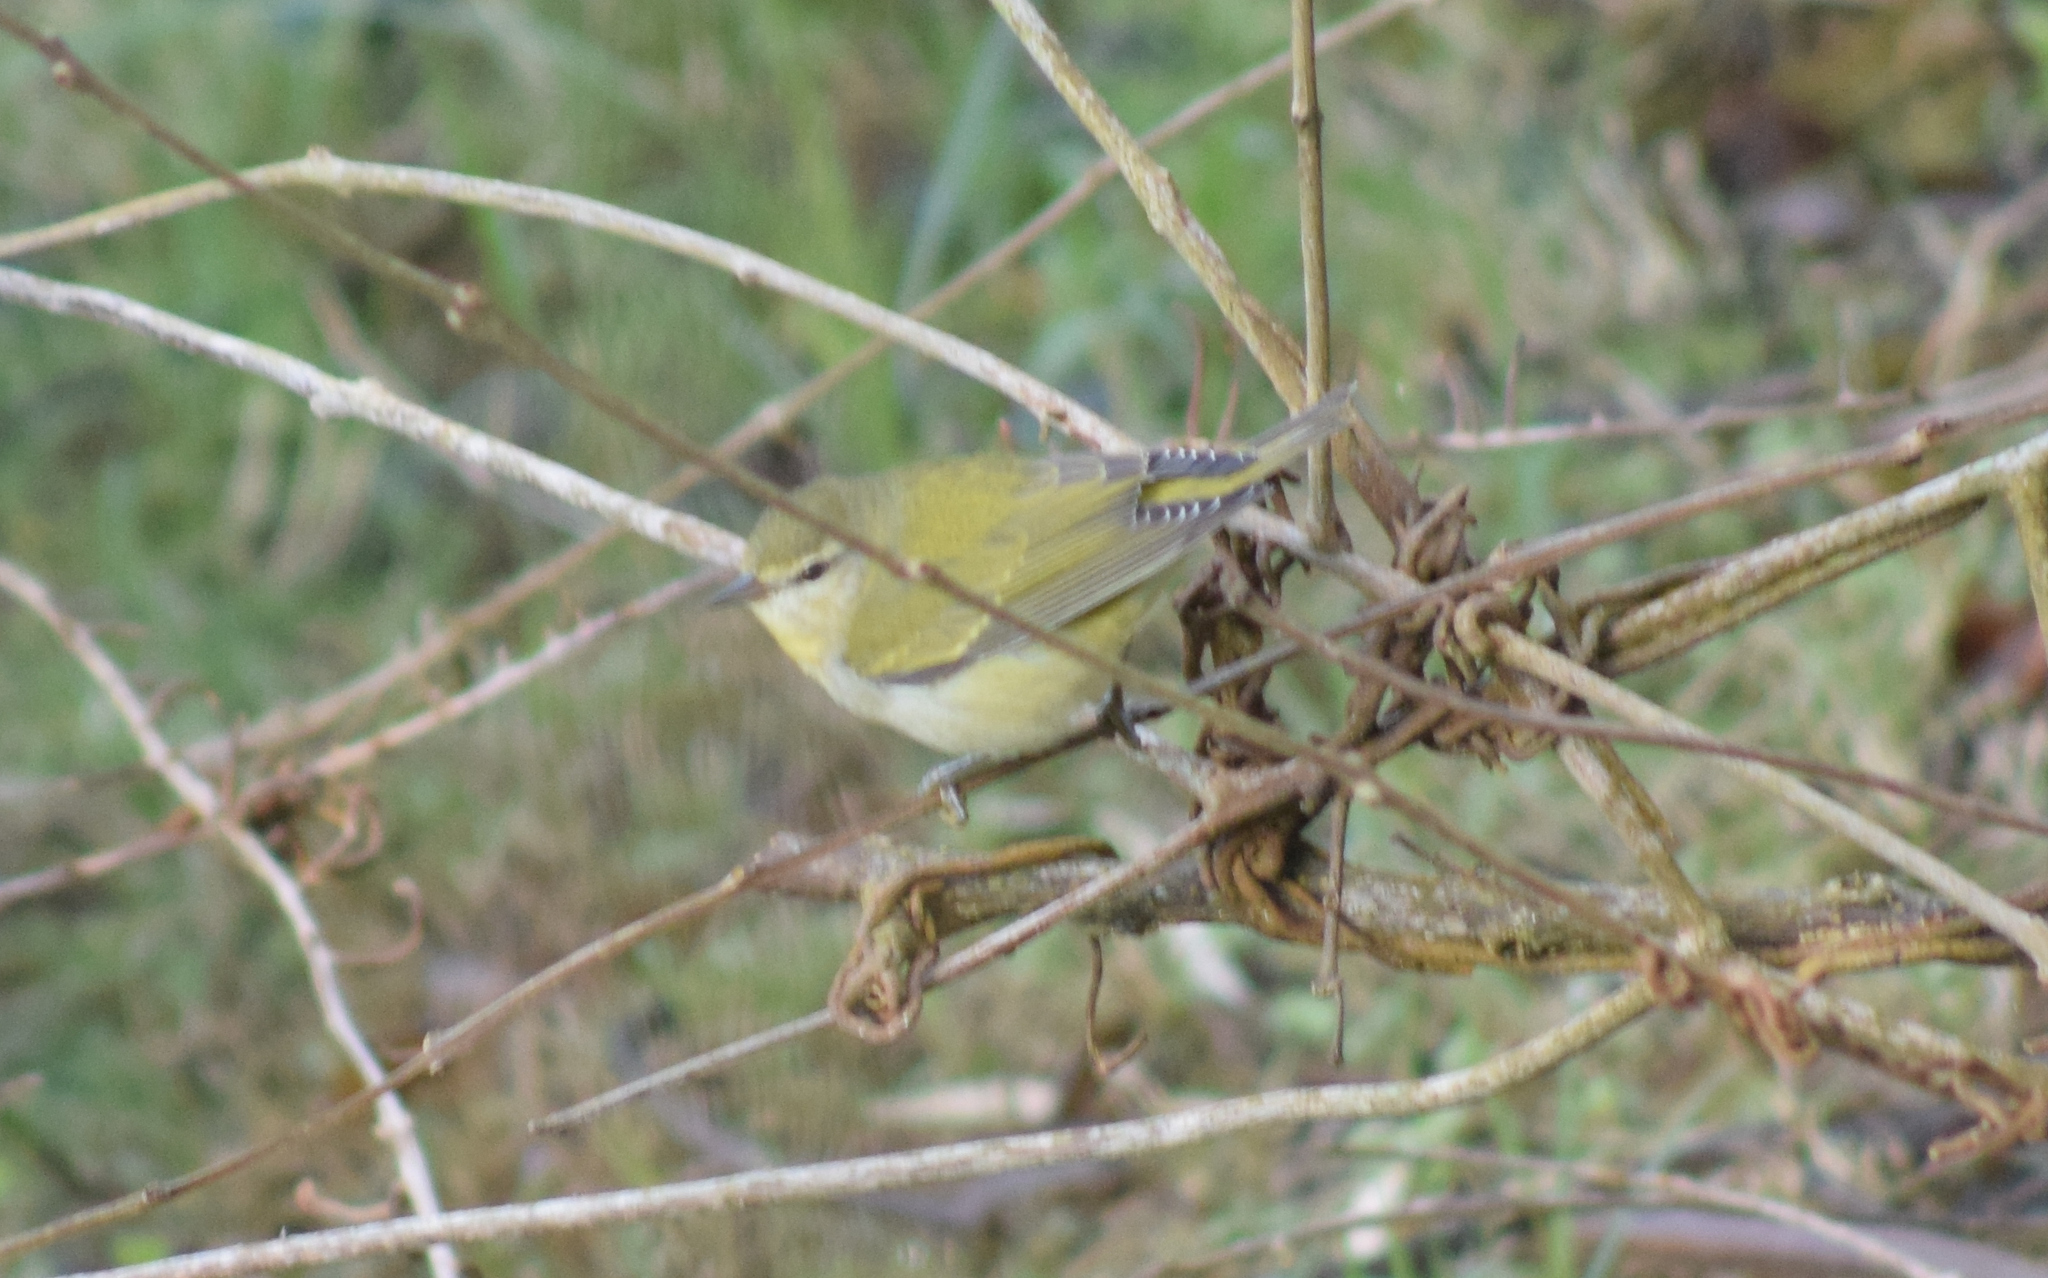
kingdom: Animalia
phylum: Chordata
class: Aves
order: Passeriformes
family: Parulidae
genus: Leiothlypis
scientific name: Leiothlypis peregrina
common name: Tennessee warbler
